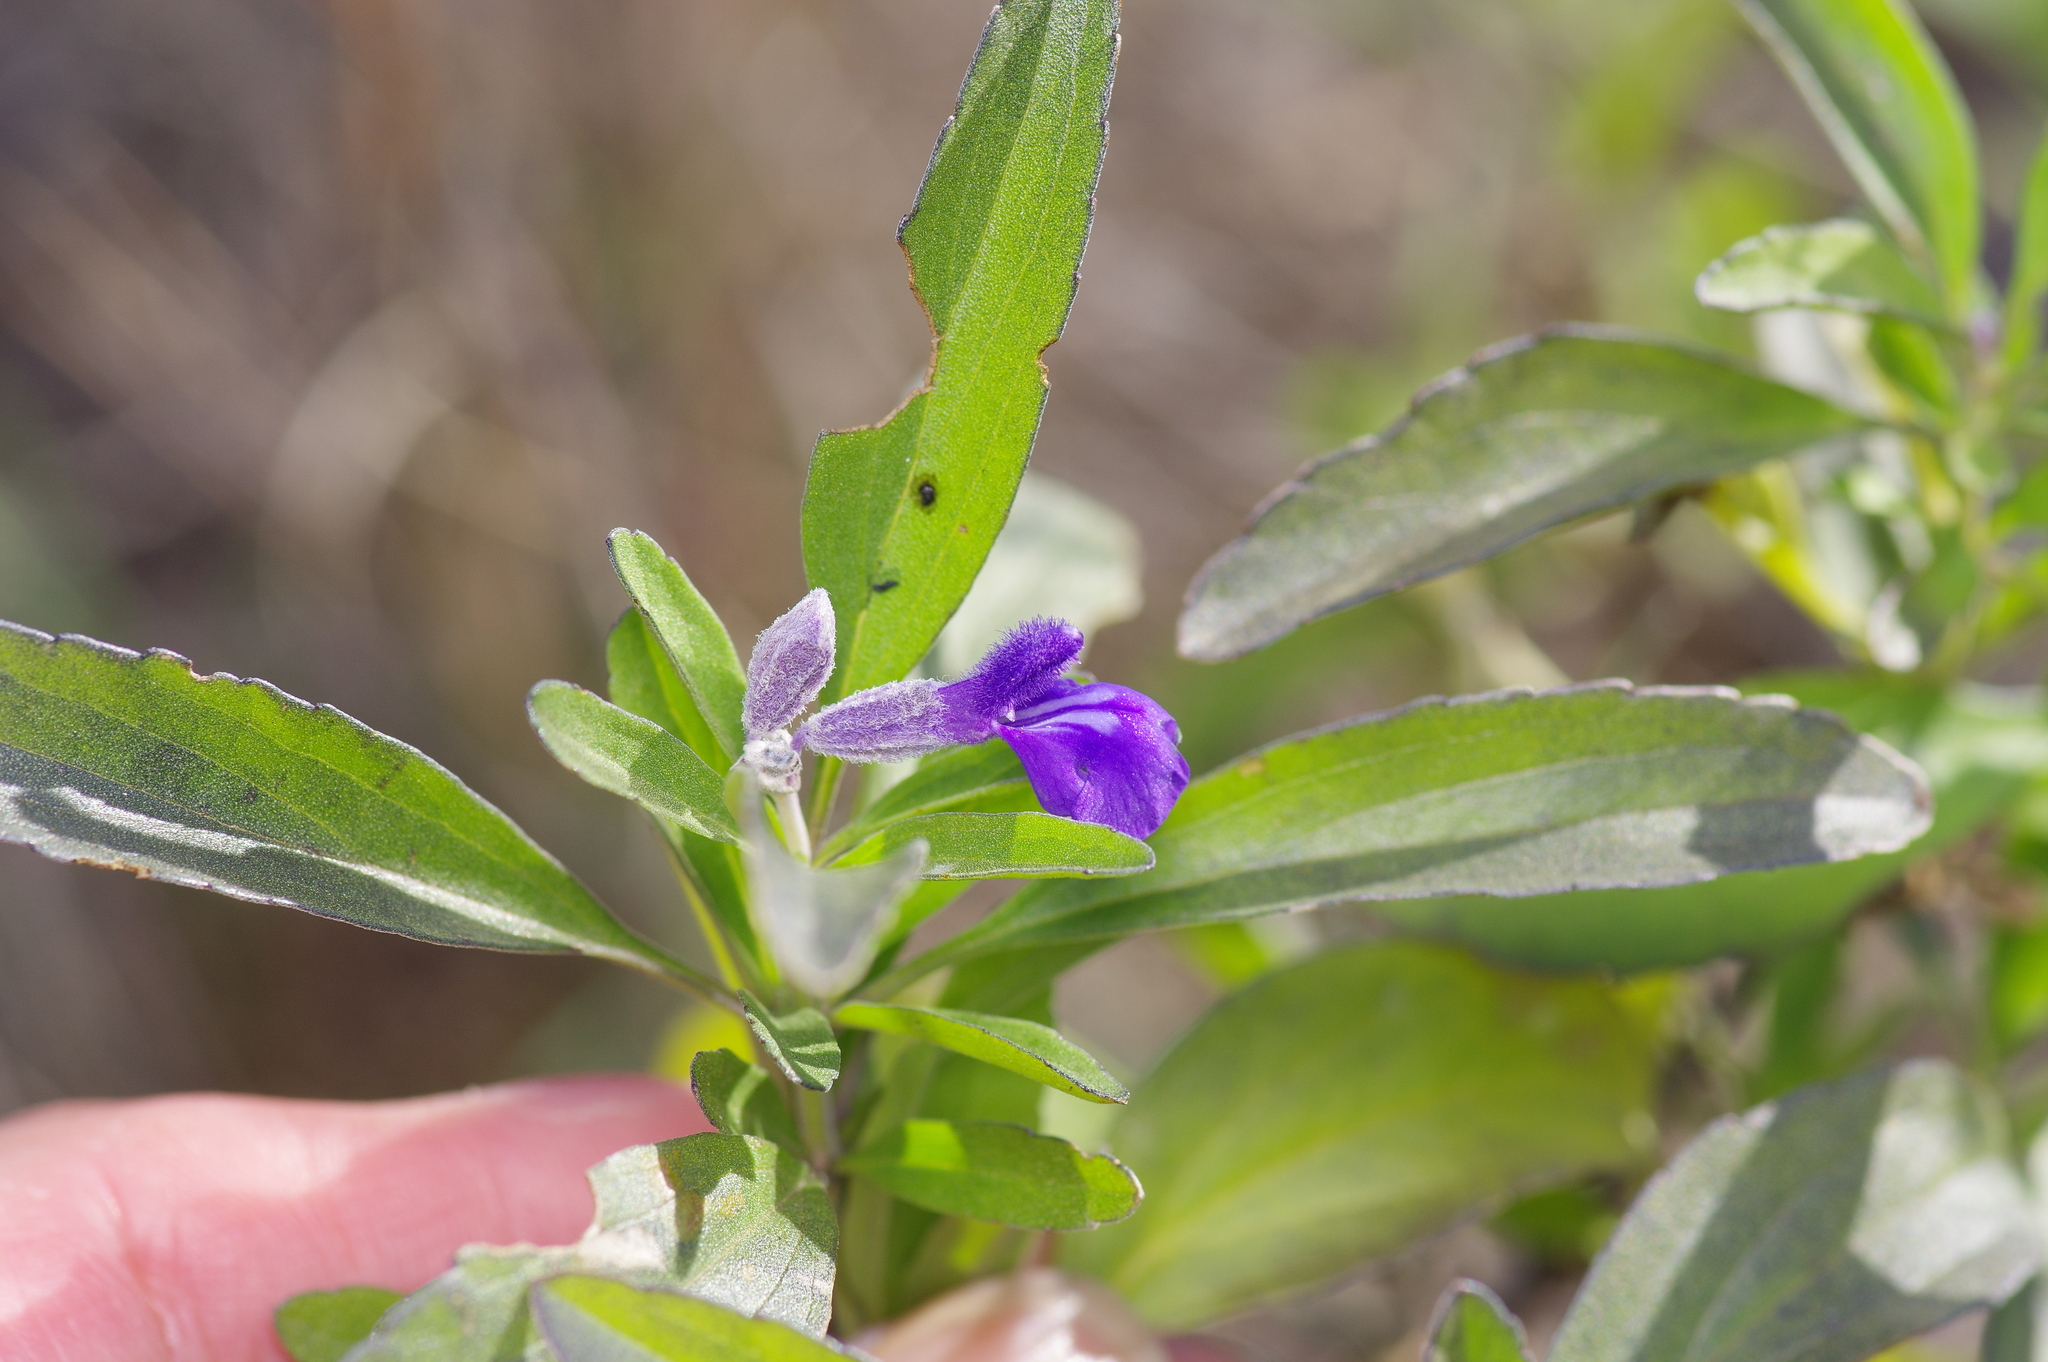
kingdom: Plantae
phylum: Tracheophyta
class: Magnoliopsida
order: Lamiales
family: Lamiaceae
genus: Salvia
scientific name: Salvia farinacea
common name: Mealy sage
